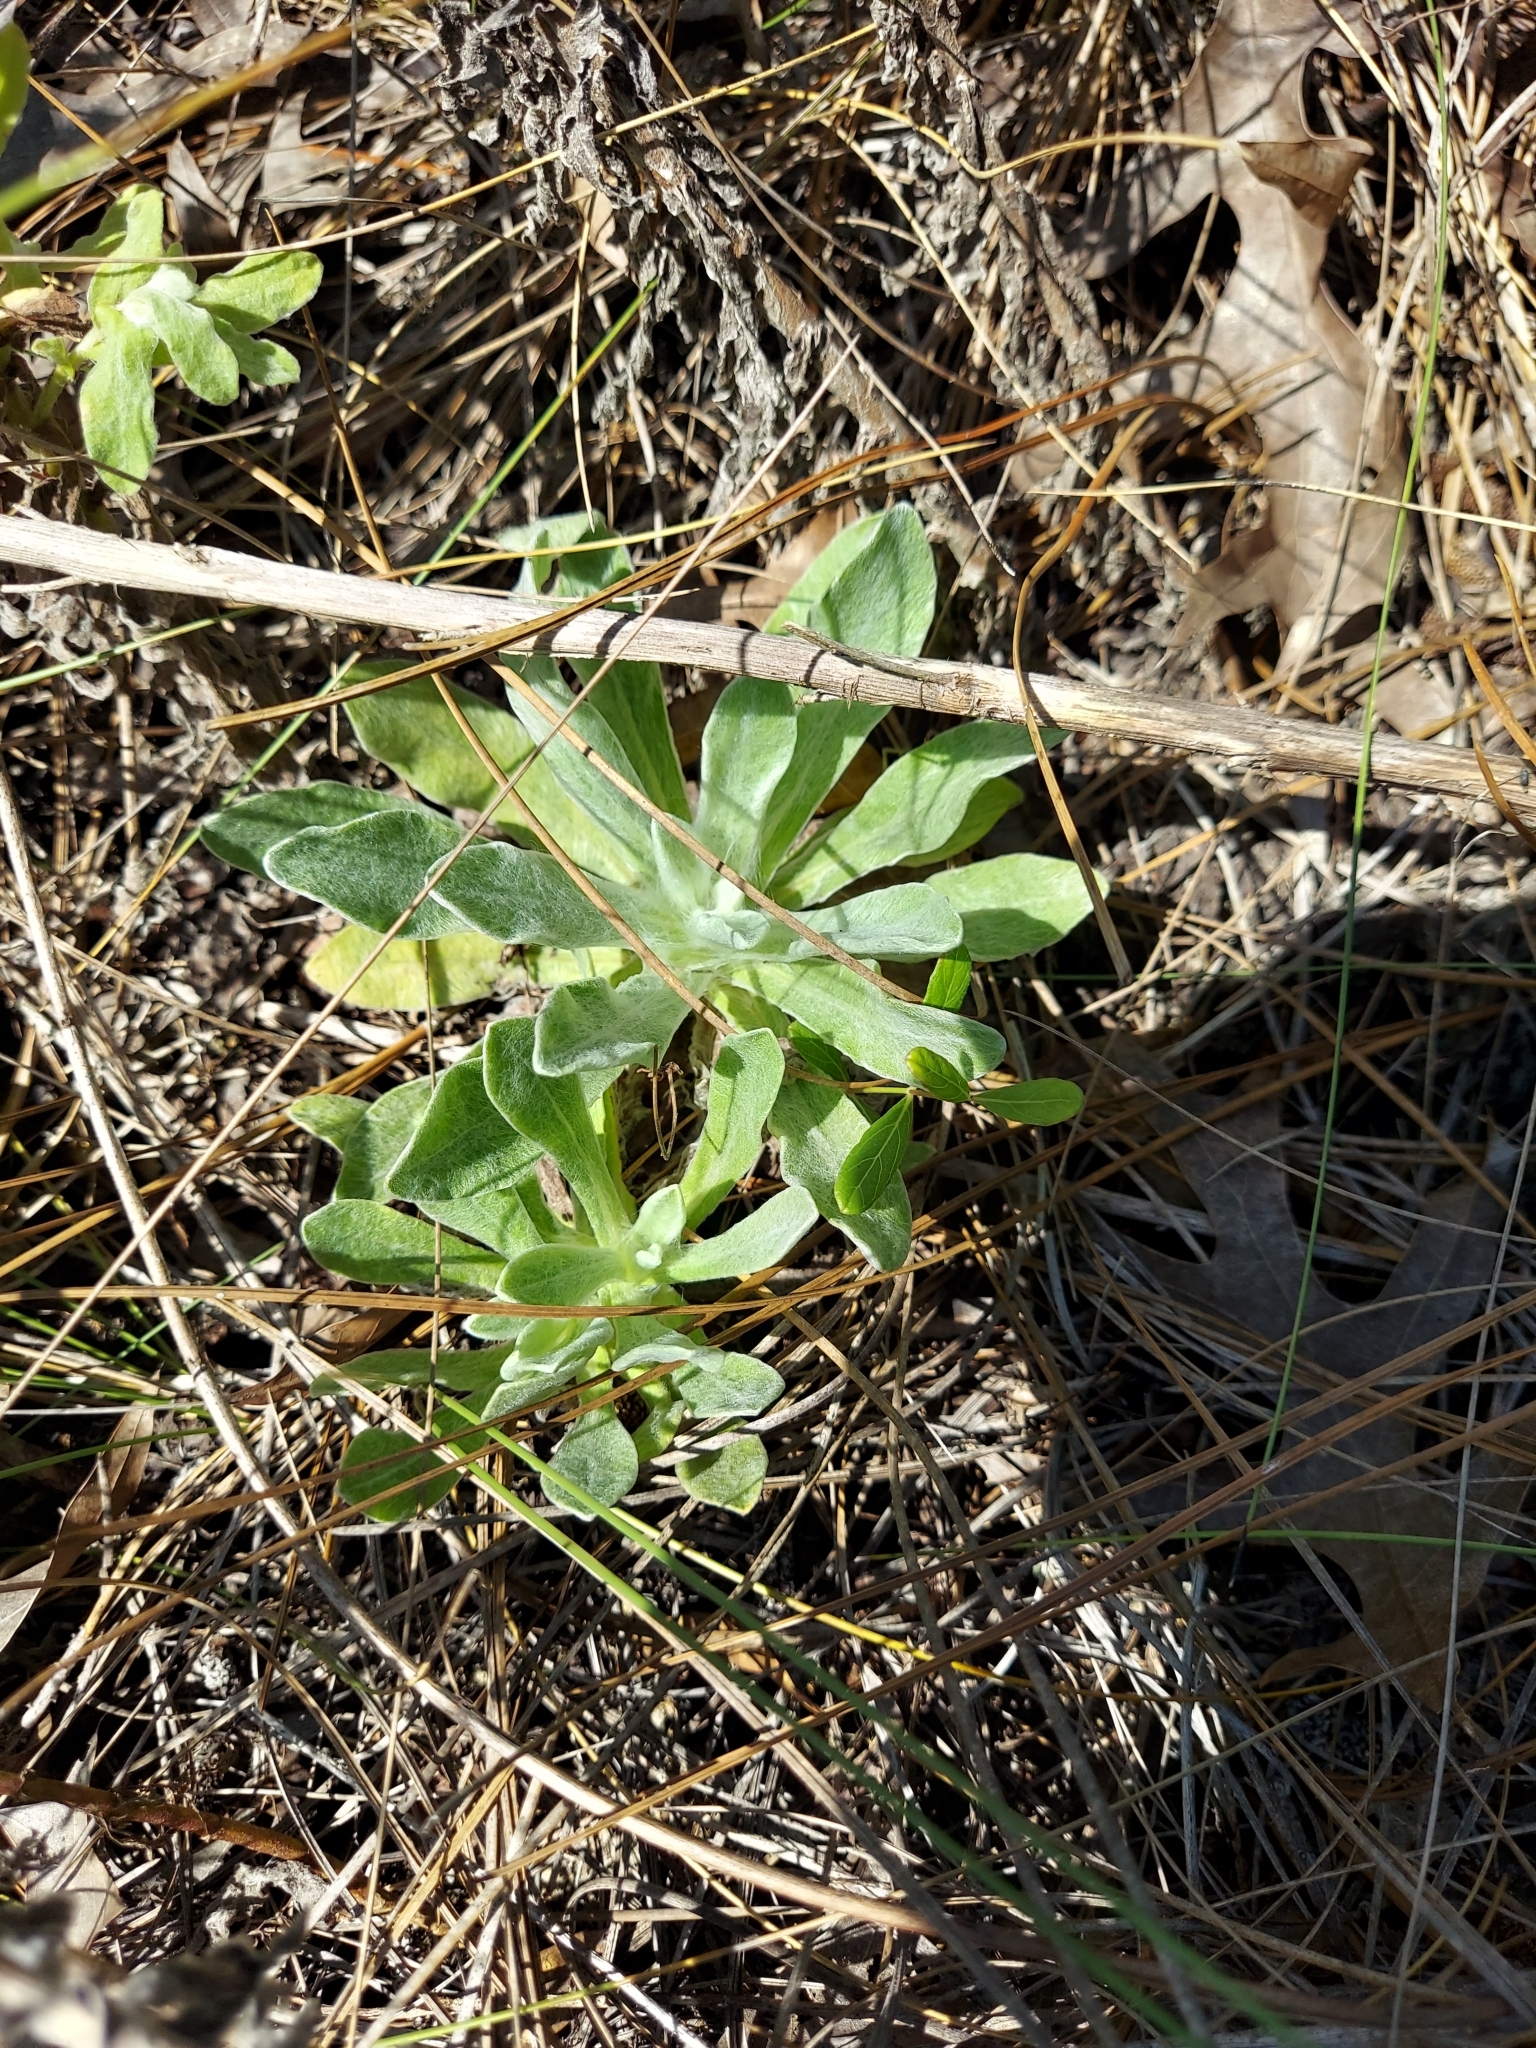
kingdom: Plantae
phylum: Tracheophyta
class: Magnoliopsida
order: Asterales
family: Asteraceae
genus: Chrysopsis
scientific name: Chrysopsis latisquamea
